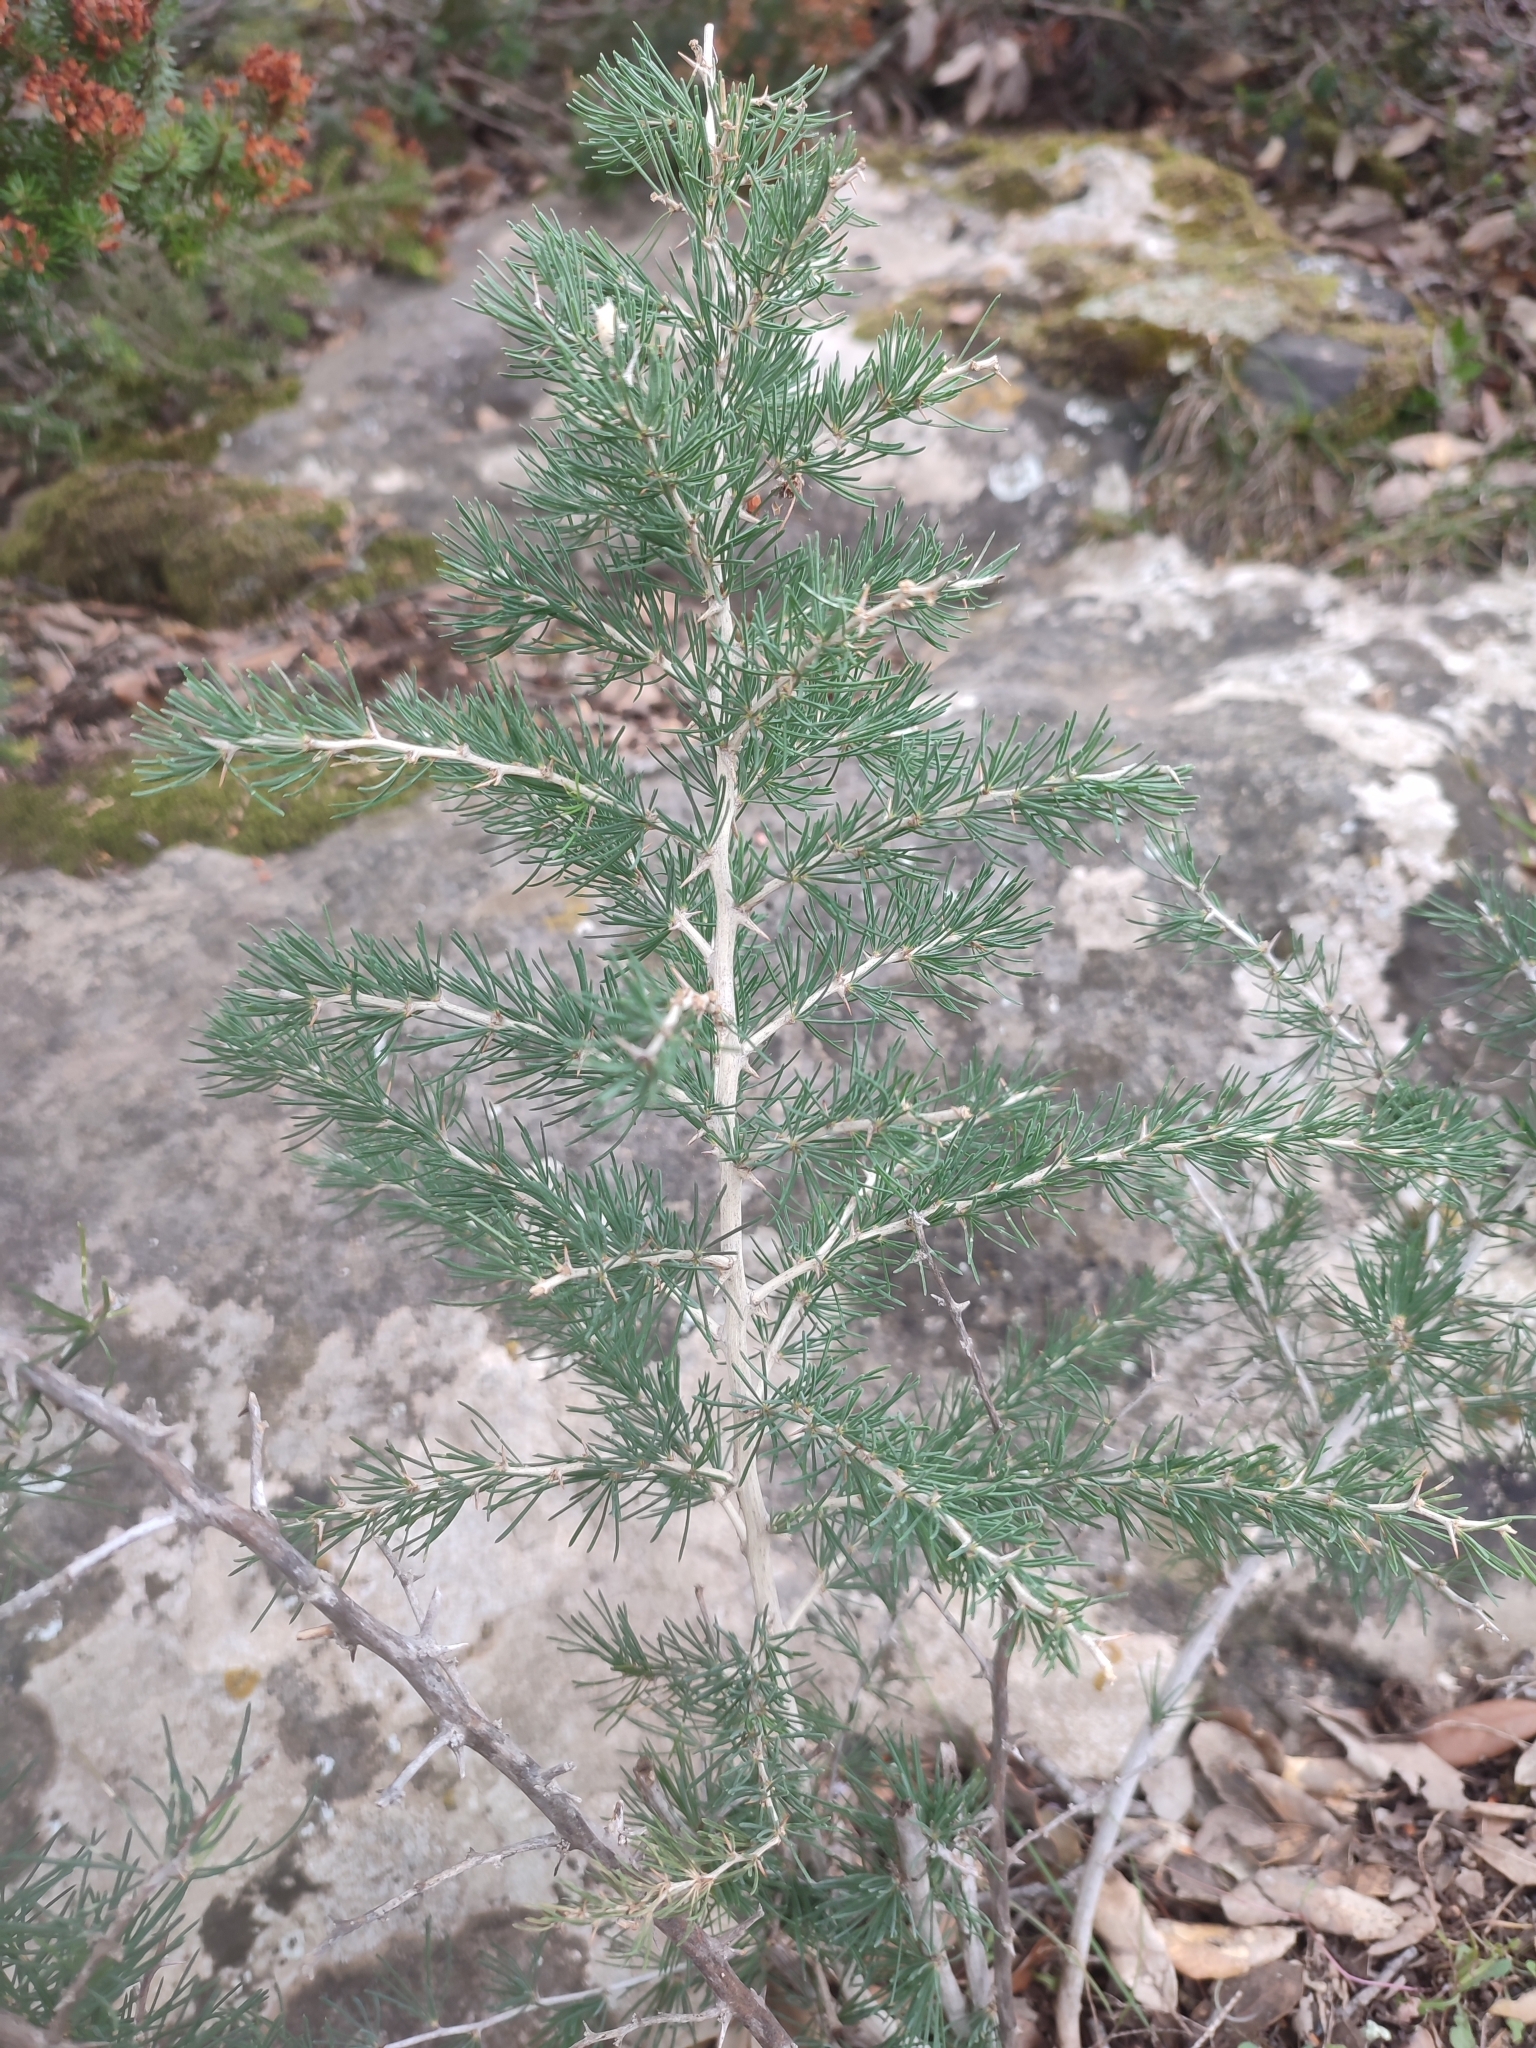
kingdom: Plantae
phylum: Tracheophyta
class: Liliopsida
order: Asparagales
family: Asparagaceae
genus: Asparagus
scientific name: Asparagus albus
